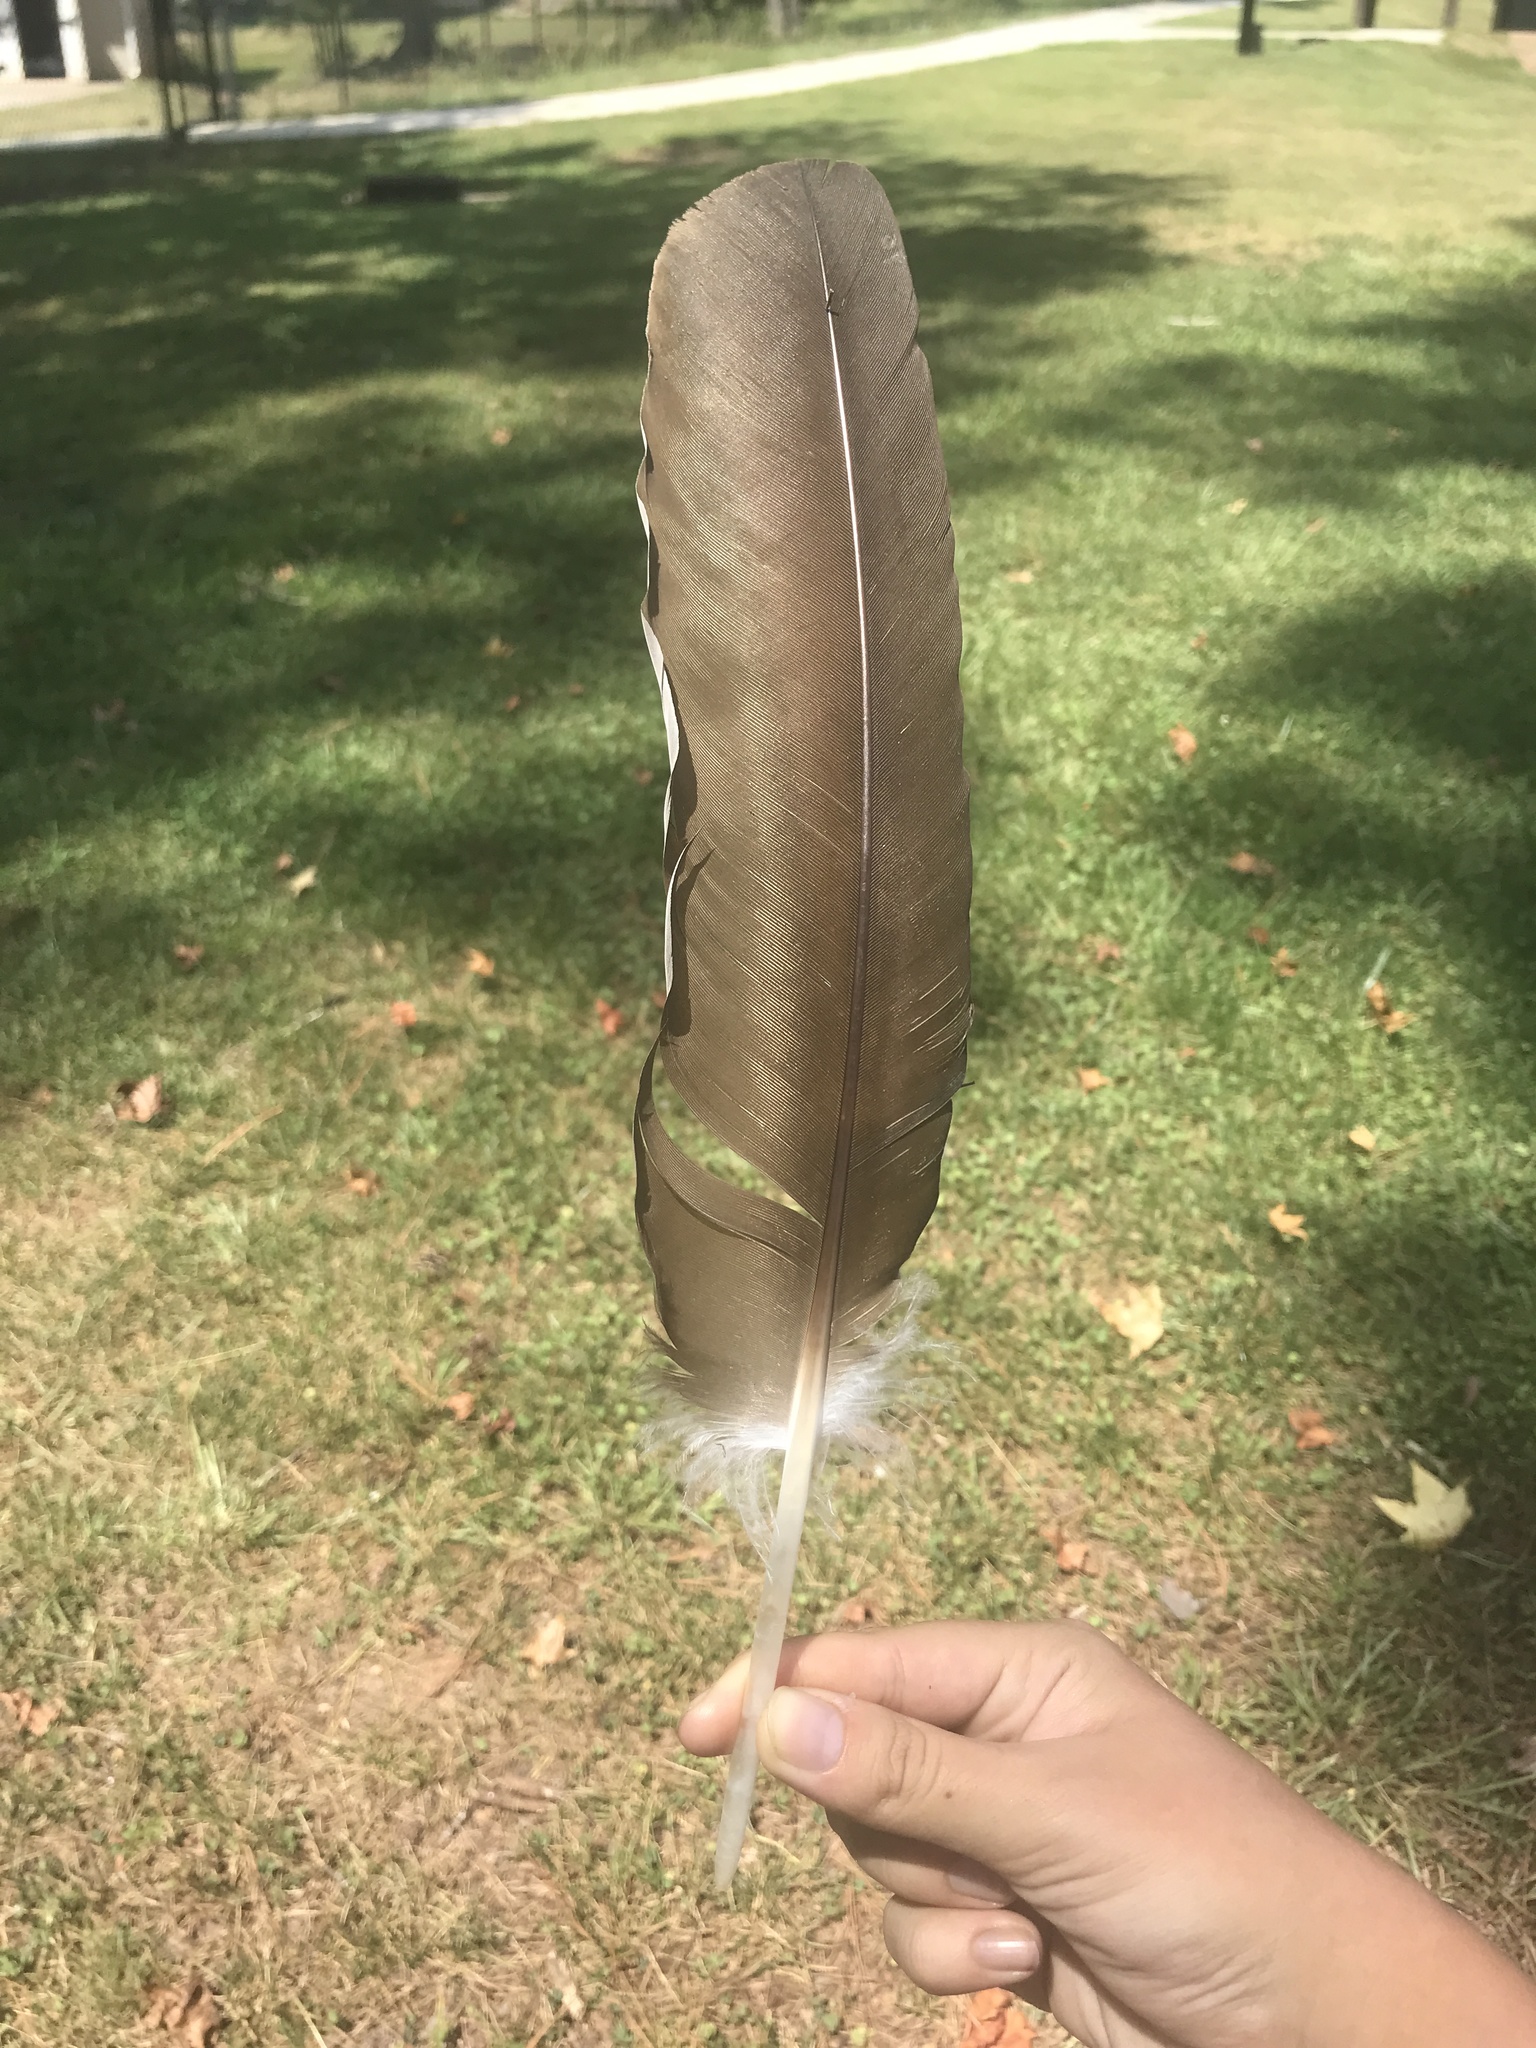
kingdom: Animalia
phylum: Chordata
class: Aves
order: Accipitriformes
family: Cathartidae
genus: Cathartes
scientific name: Cathartes aura
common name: Turkey vulture
